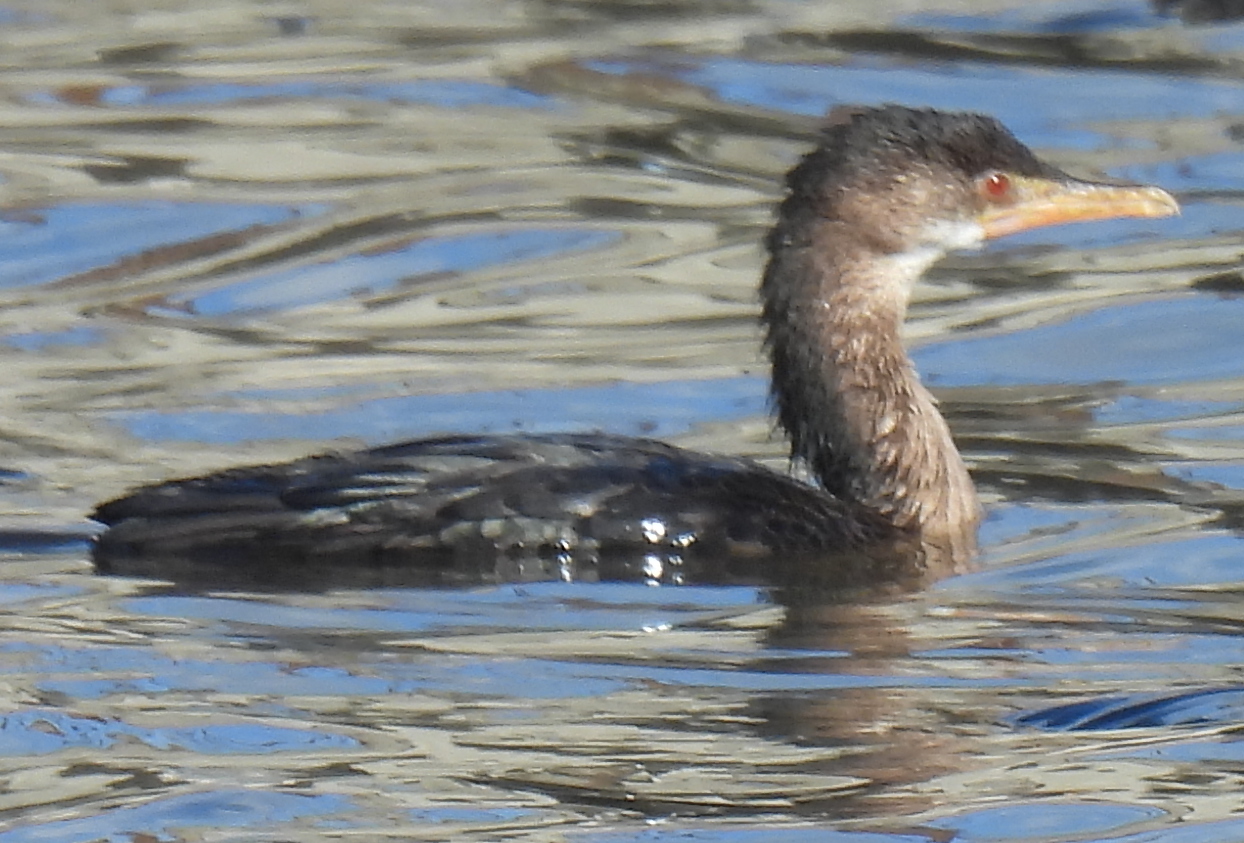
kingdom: Animalia
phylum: Chordata
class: Aves
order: Suliformes
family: Phalacrocoracidae
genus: Microcarbo
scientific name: Microcarbo africanus
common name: Long-tailed cormorant
